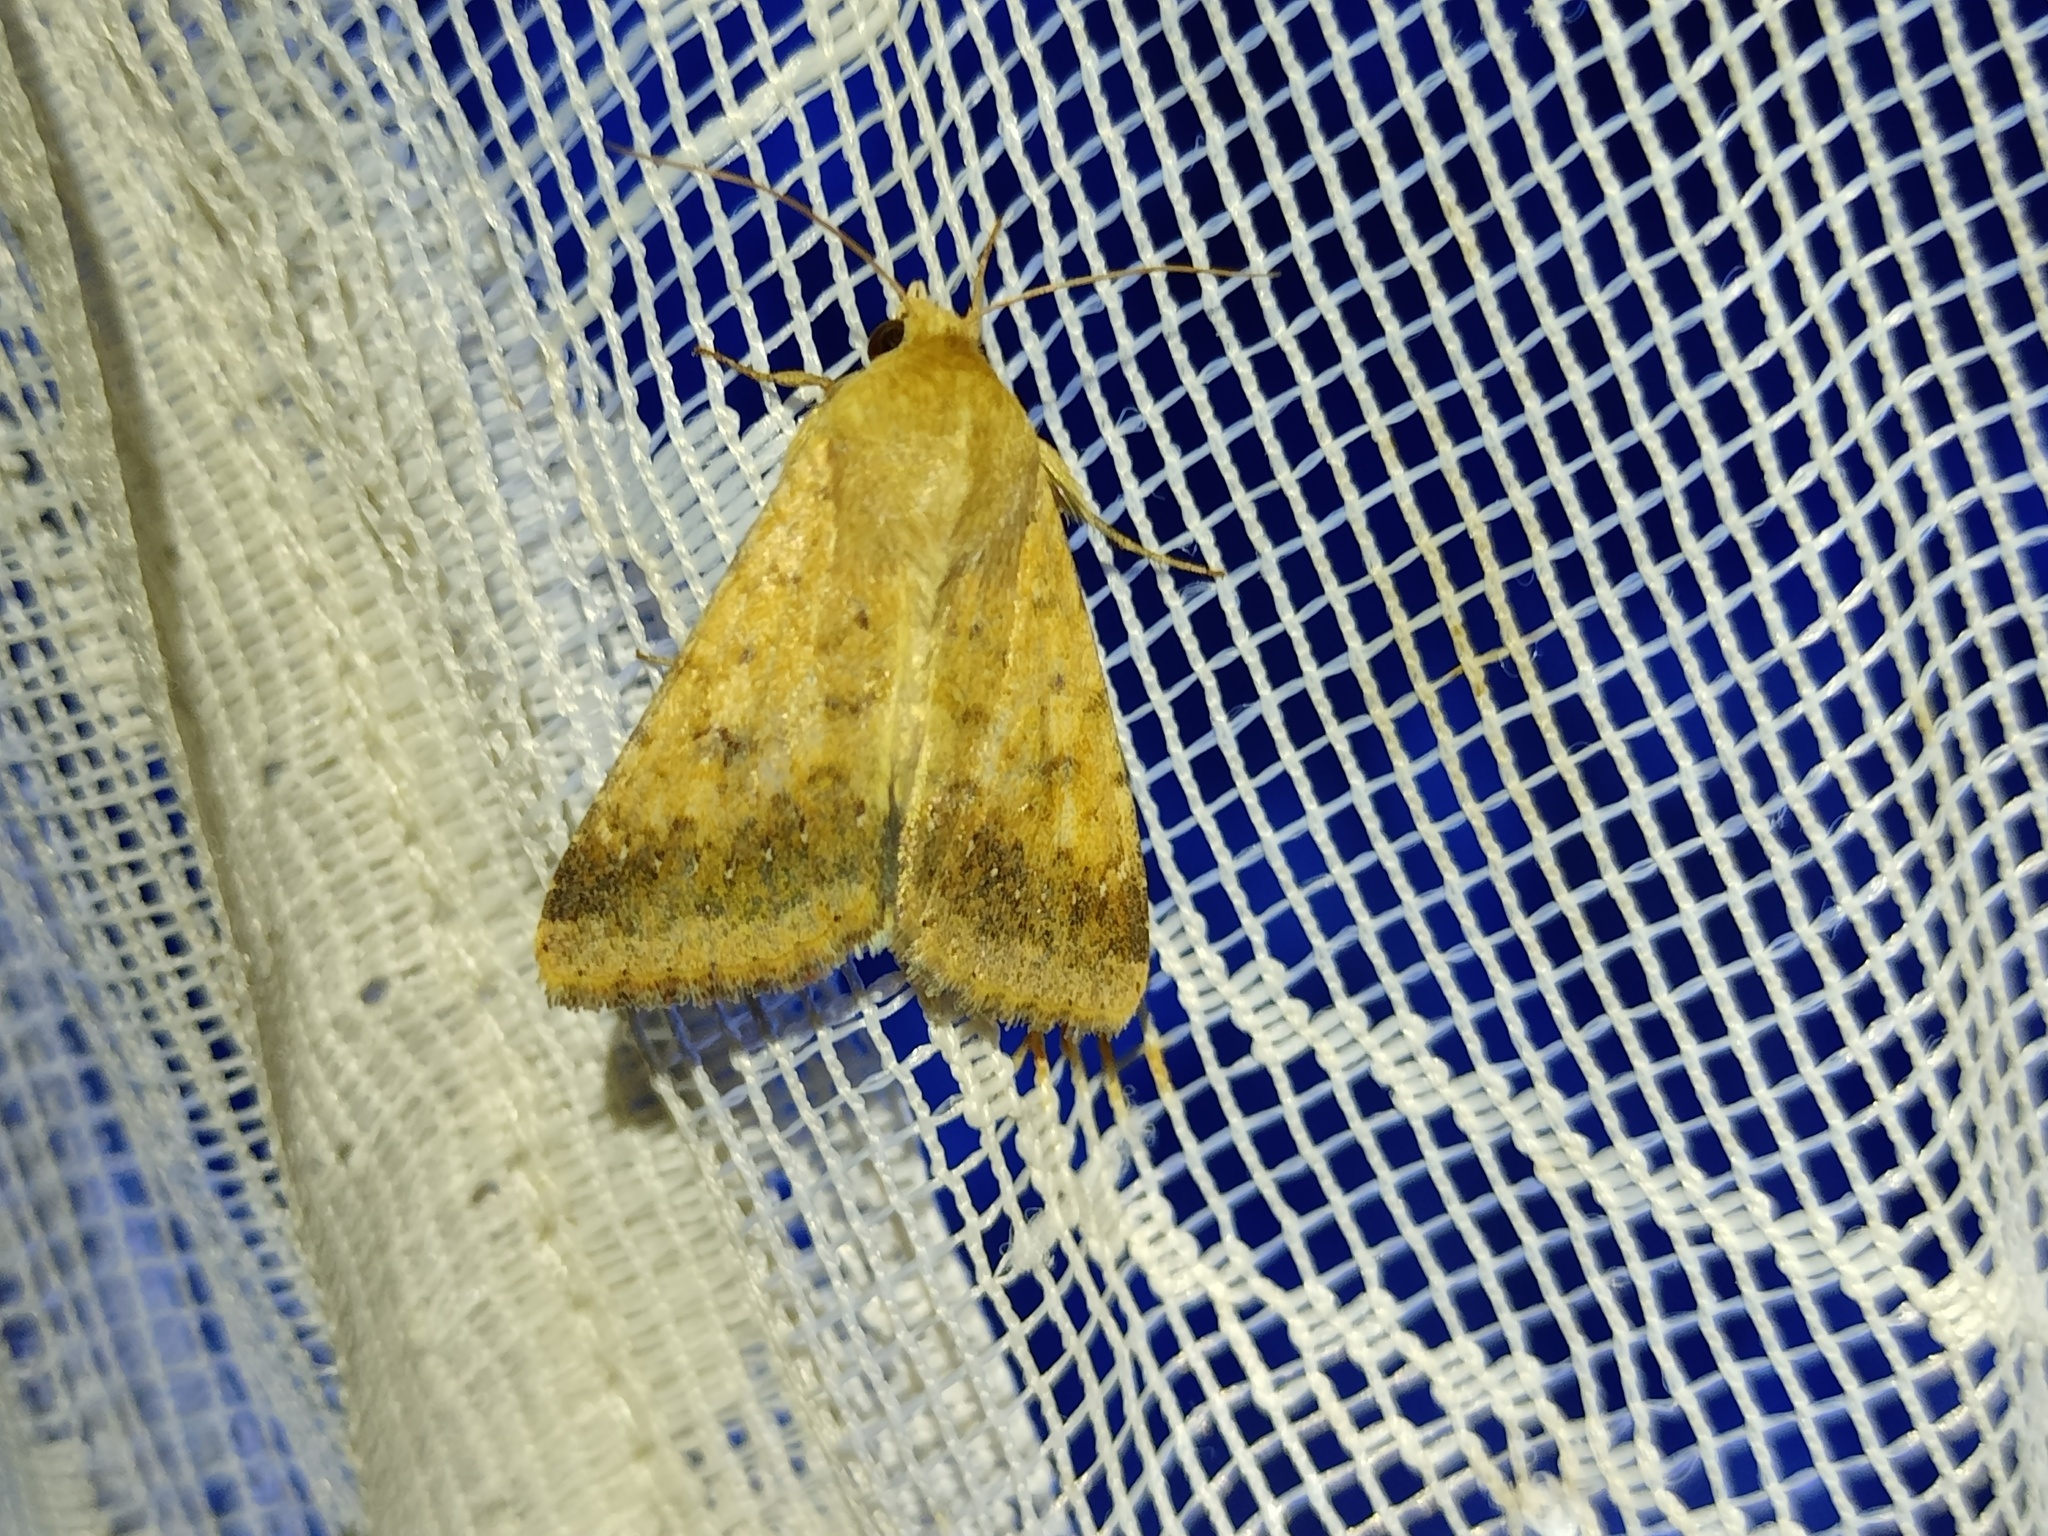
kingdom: Animalia
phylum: Arthropoda
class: Insecta
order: Lepidoptera
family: Noctuidae
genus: Helicoverpa
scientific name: Helicoverpa armigera
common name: Cotton bollworm
